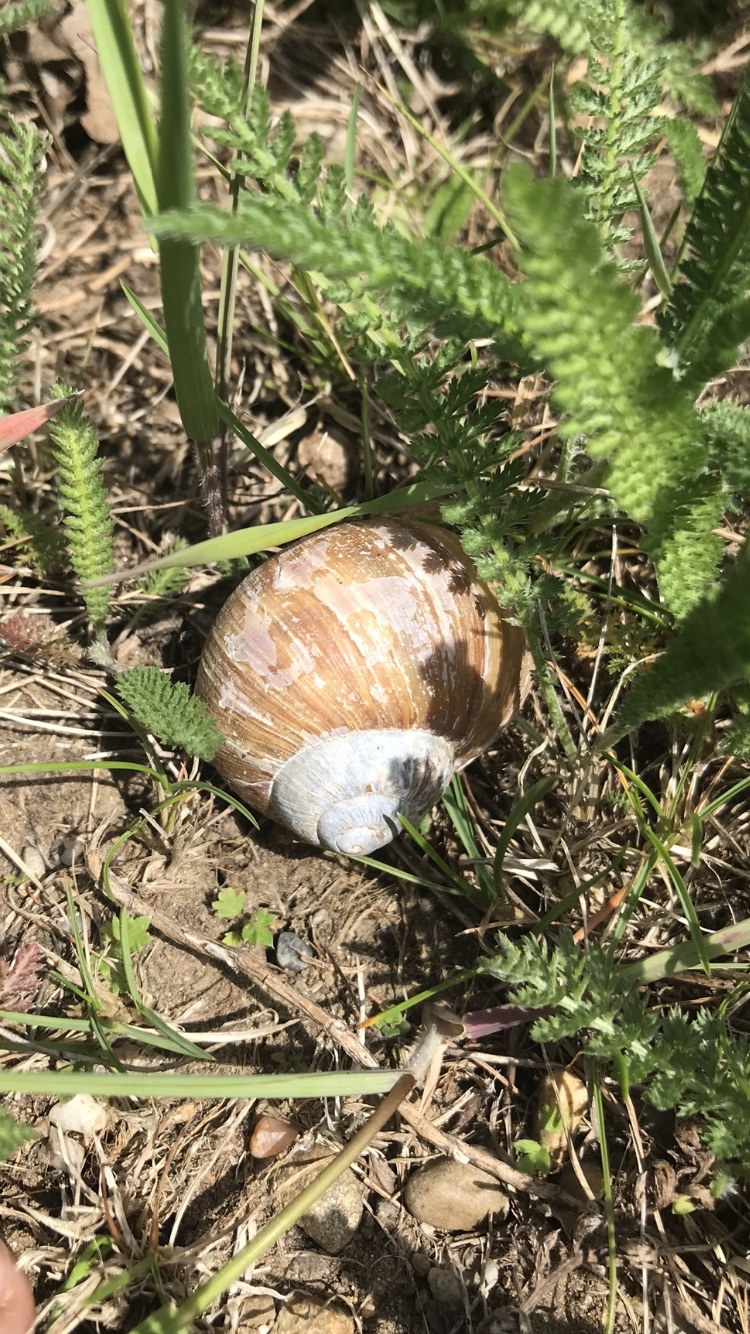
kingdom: Animalia
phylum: Mollusca
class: Gastropoda
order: Stylommatophora
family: Helicidae
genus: Helix
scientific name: Helix pomatia
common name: Roman snail
